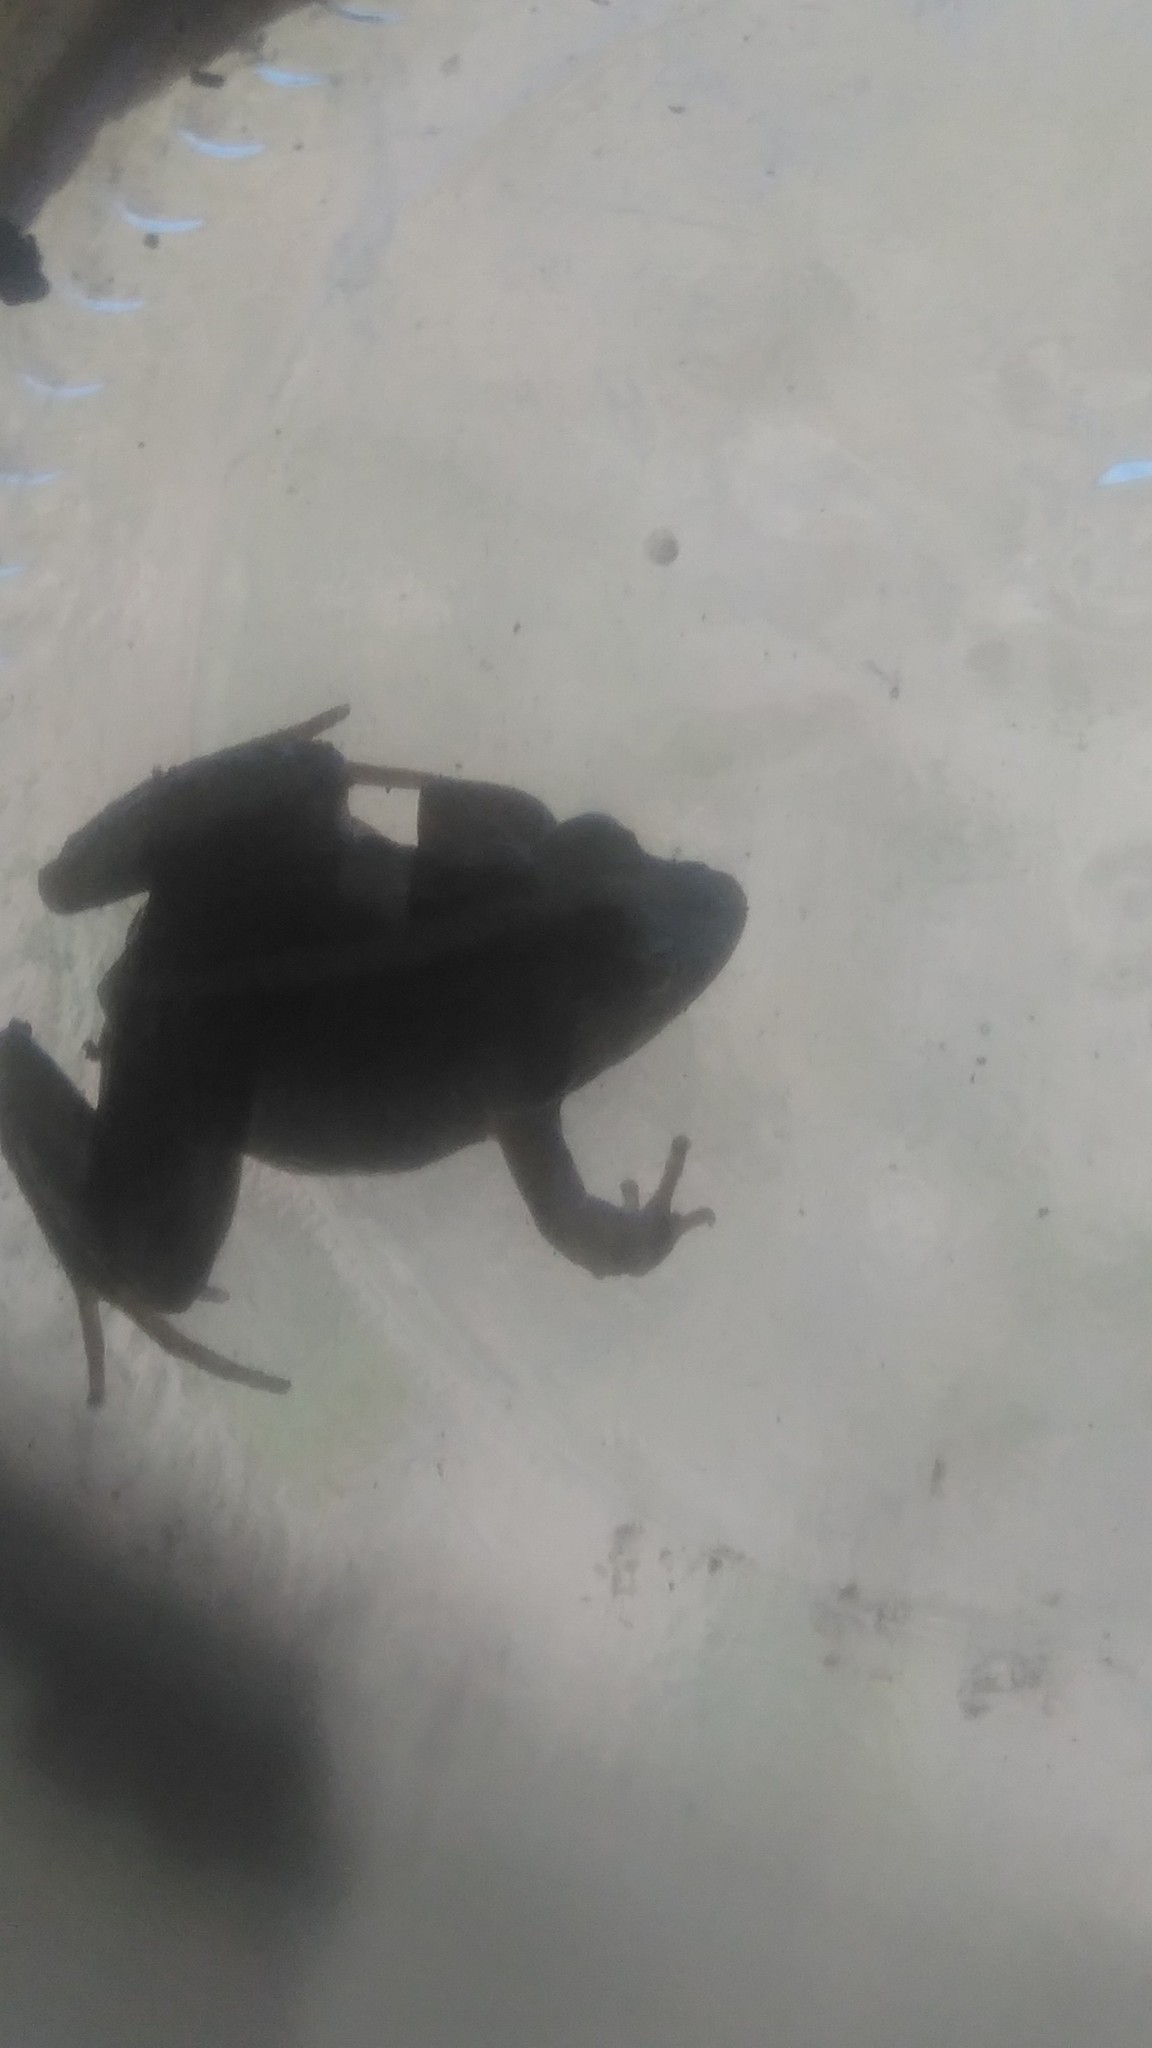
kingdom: Animalia
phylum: Chordata
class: Amphibia
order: Anura
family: Leptodactylidae
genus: Pseudopaludicola
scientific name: Pseudopaludicola falcipes
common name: Hensel’s swamp frog
